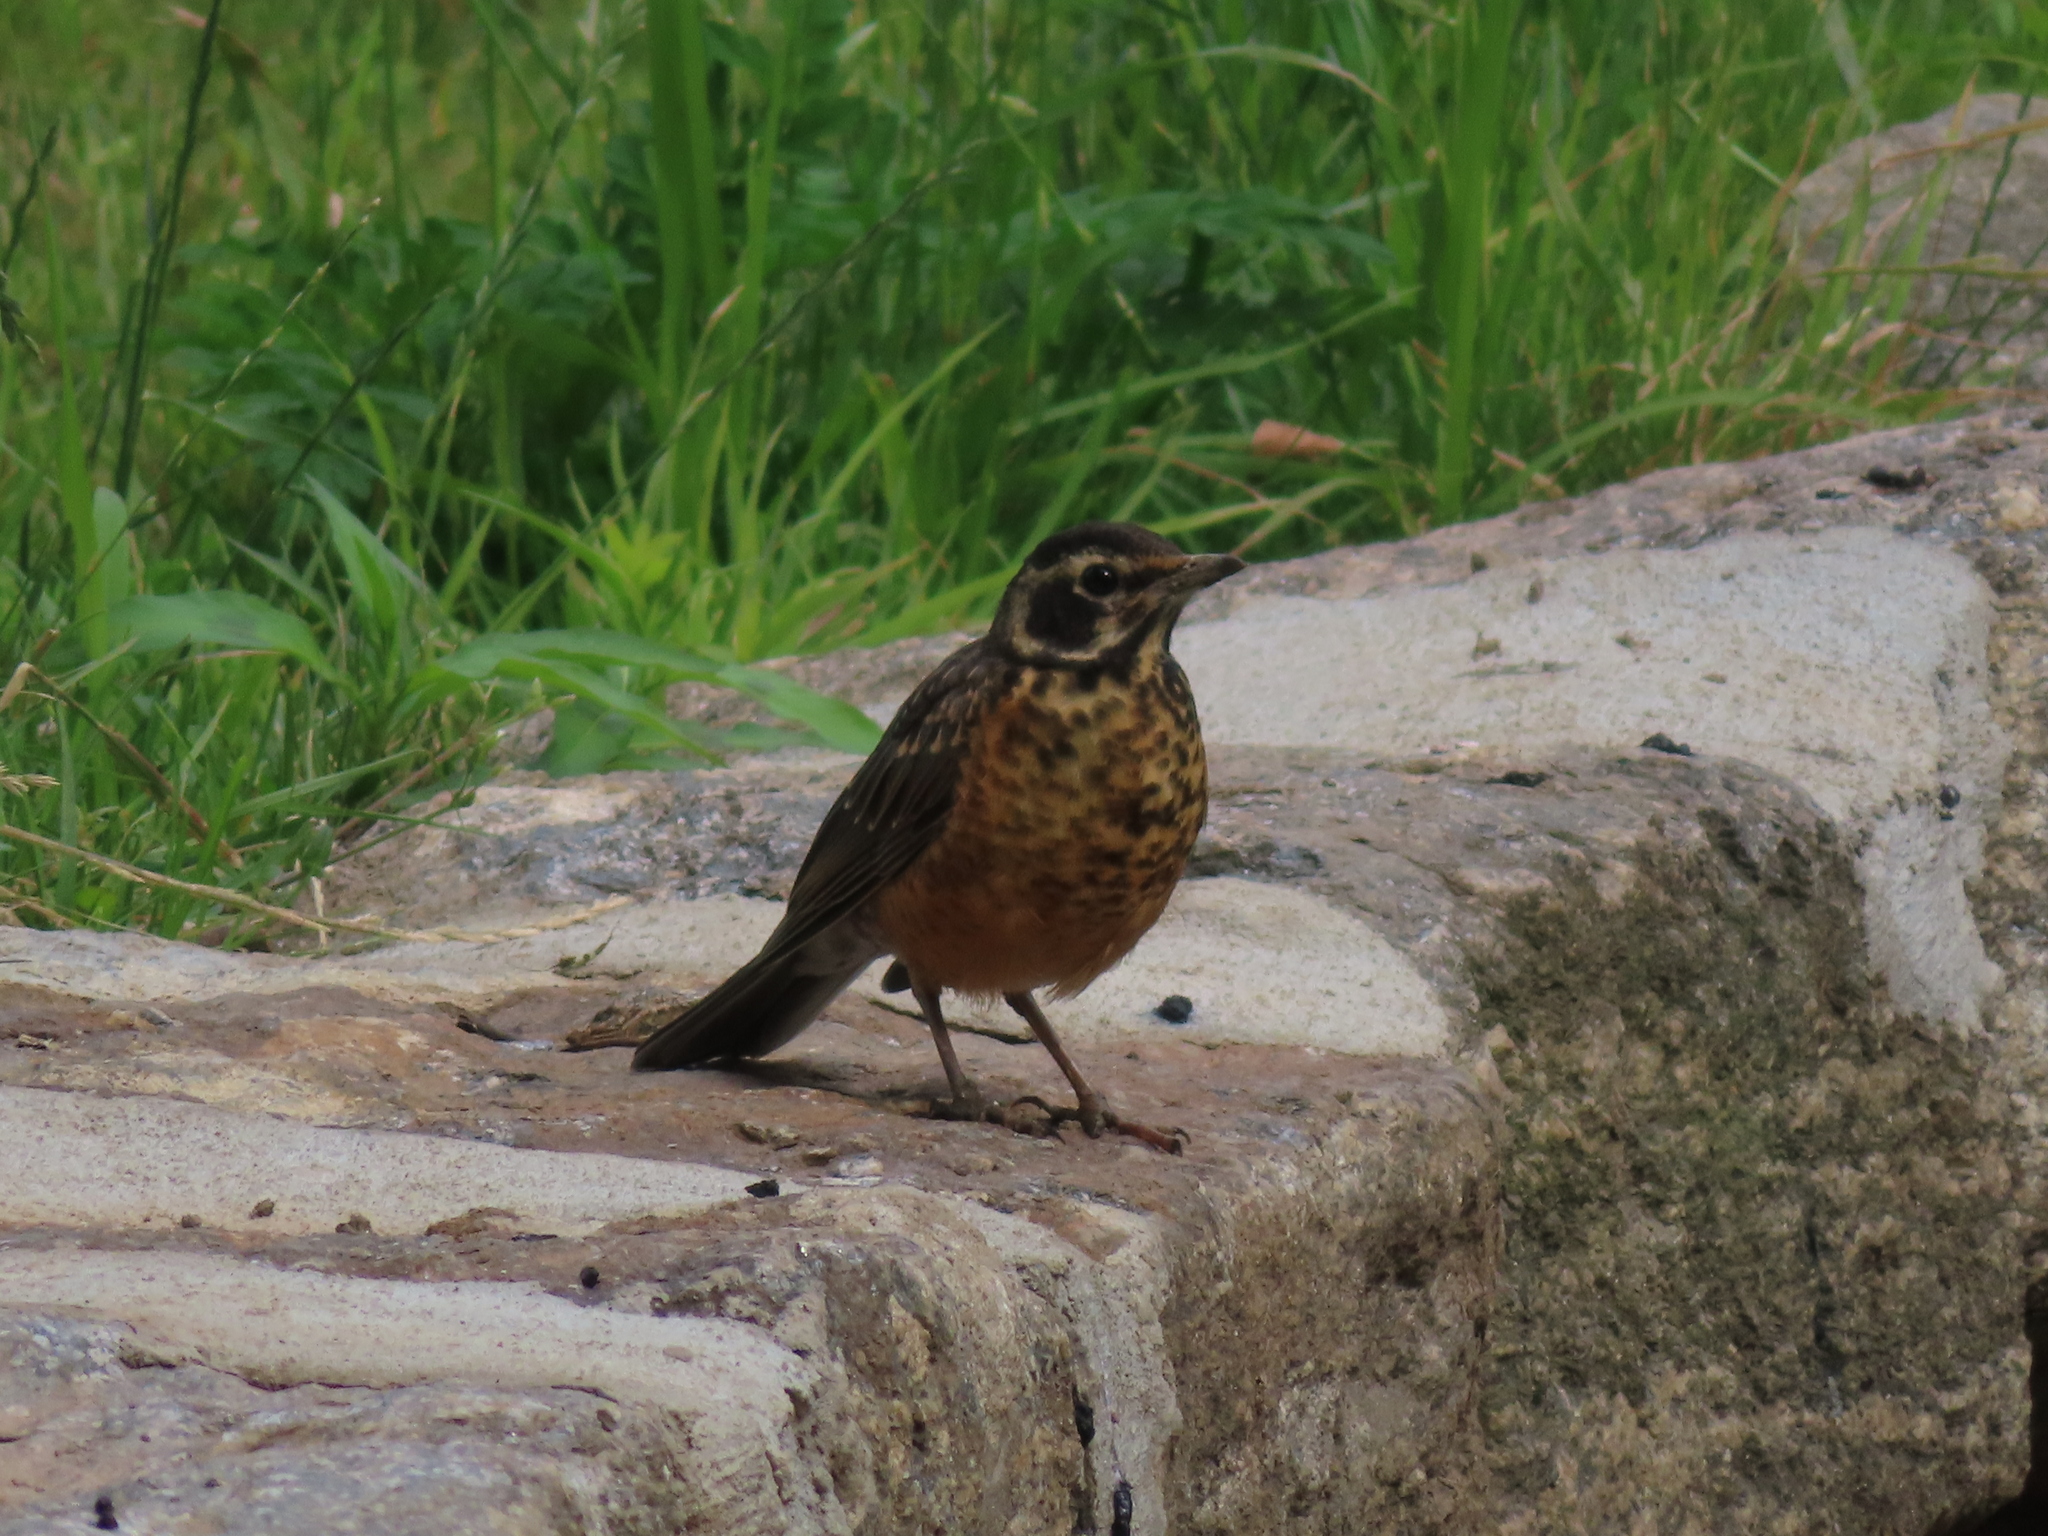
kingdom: Animalia
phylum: Chordata
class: Aves
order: Passeriformes
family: Turdidae
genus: Turdus
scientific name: Turdus migratorius
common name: American robin
